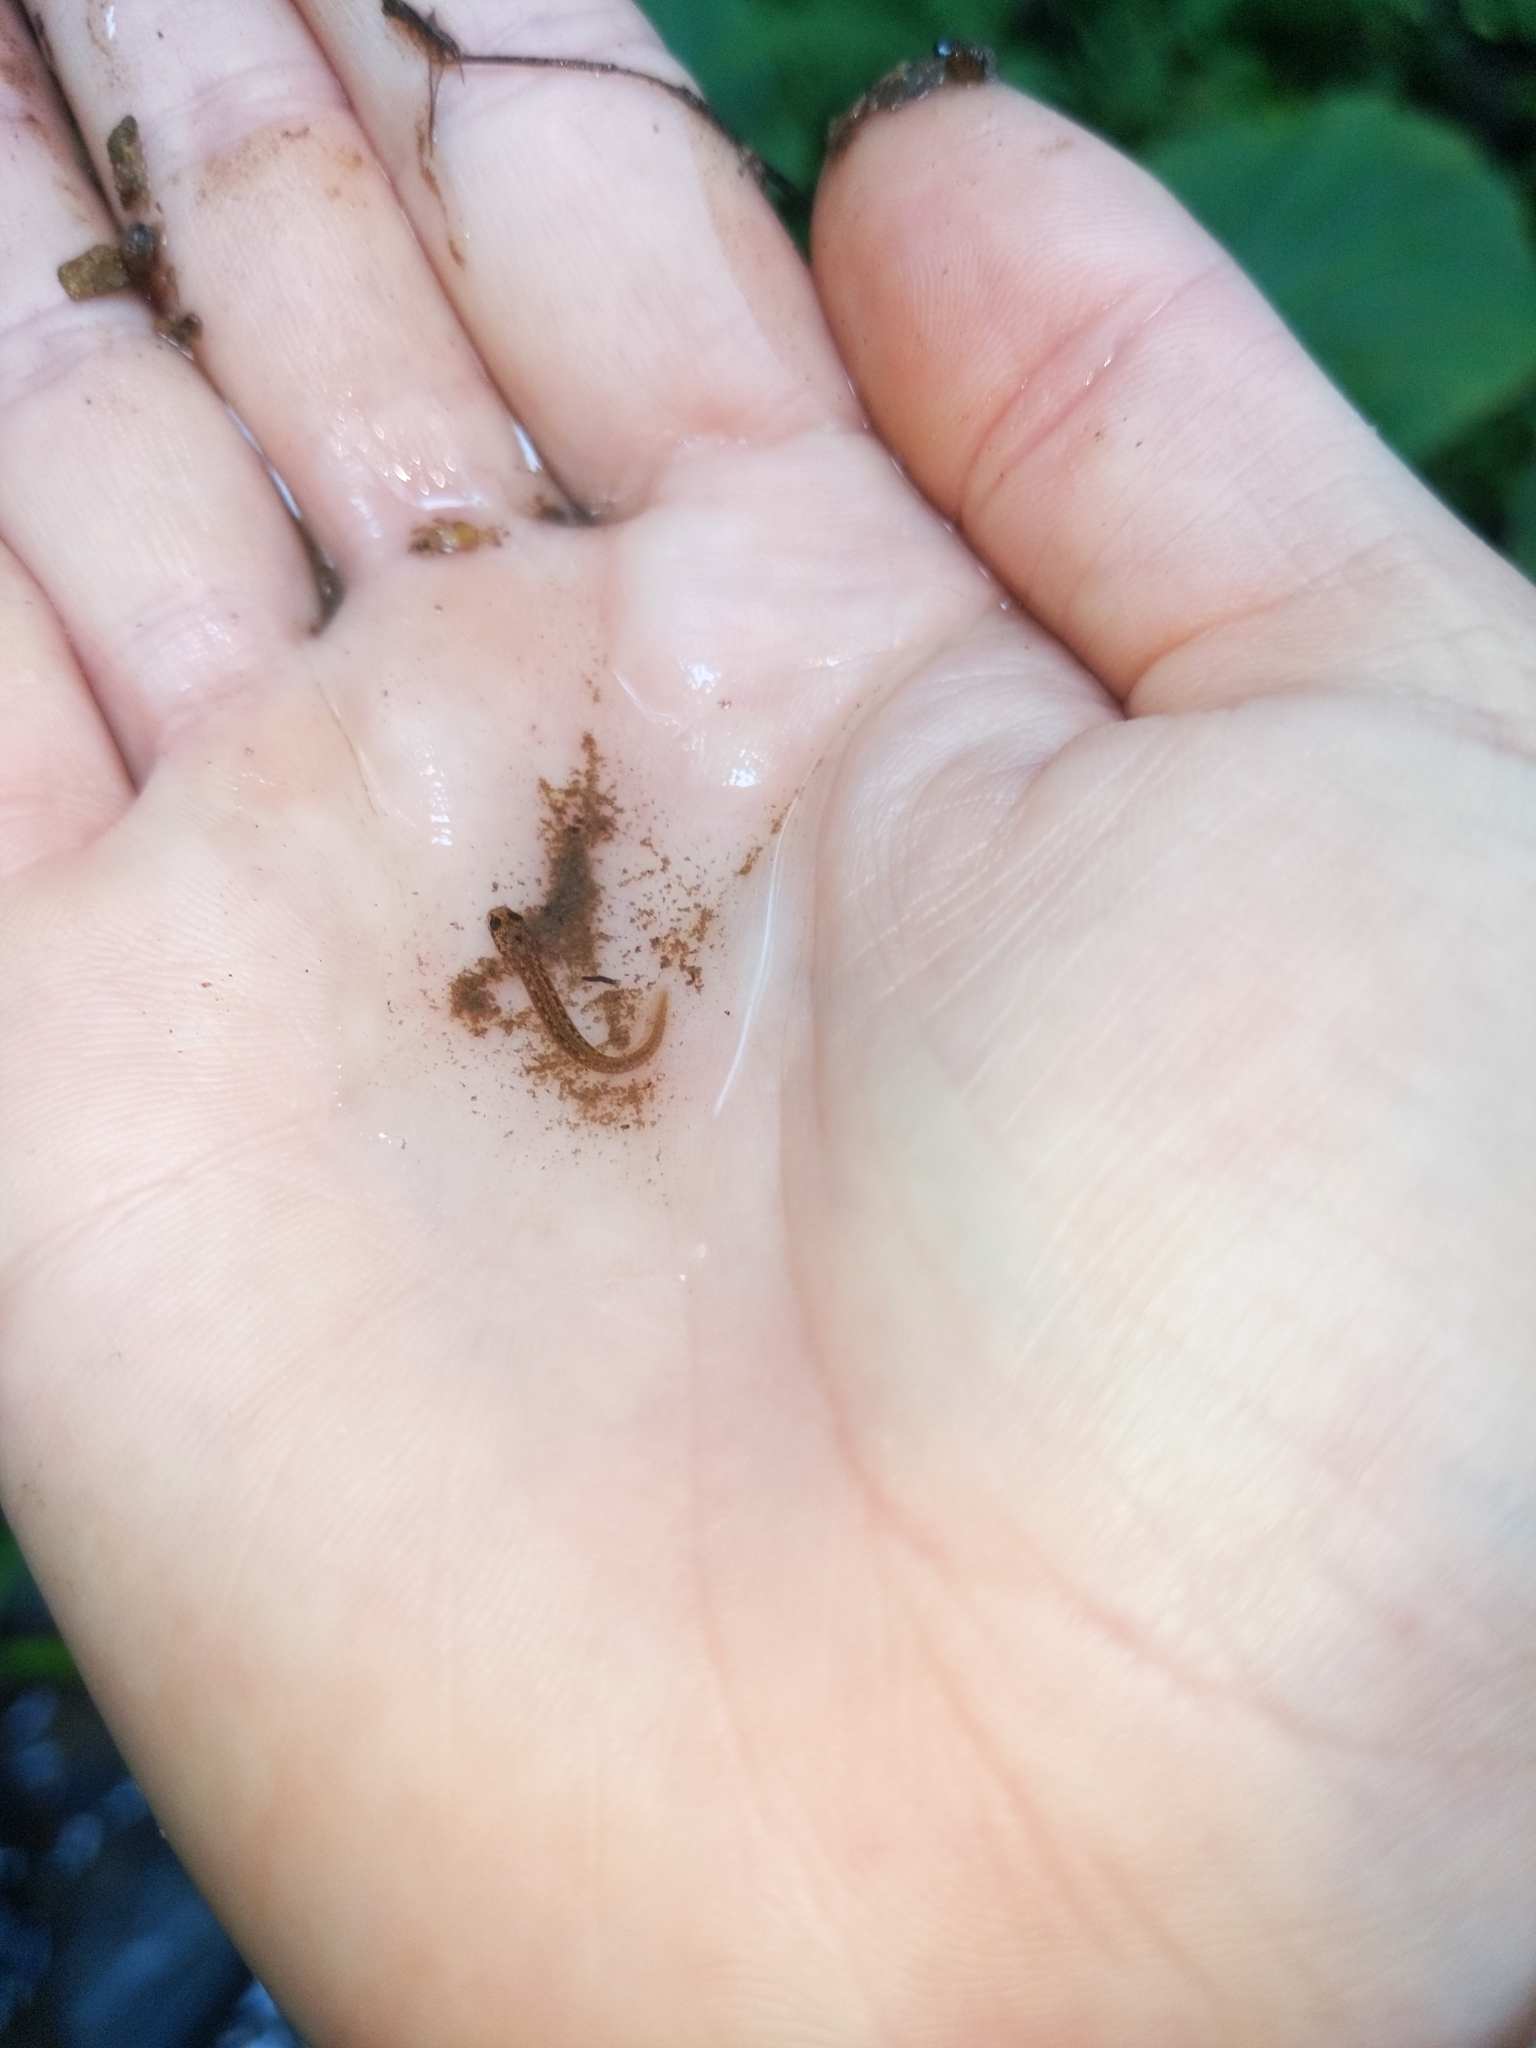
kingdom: Animalia
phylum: Chordata
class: Amphibia
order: Caudata
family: Plethodontidae
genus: Eurycea
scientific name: Eurycea bislineata
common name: Northern two-lined salamander
